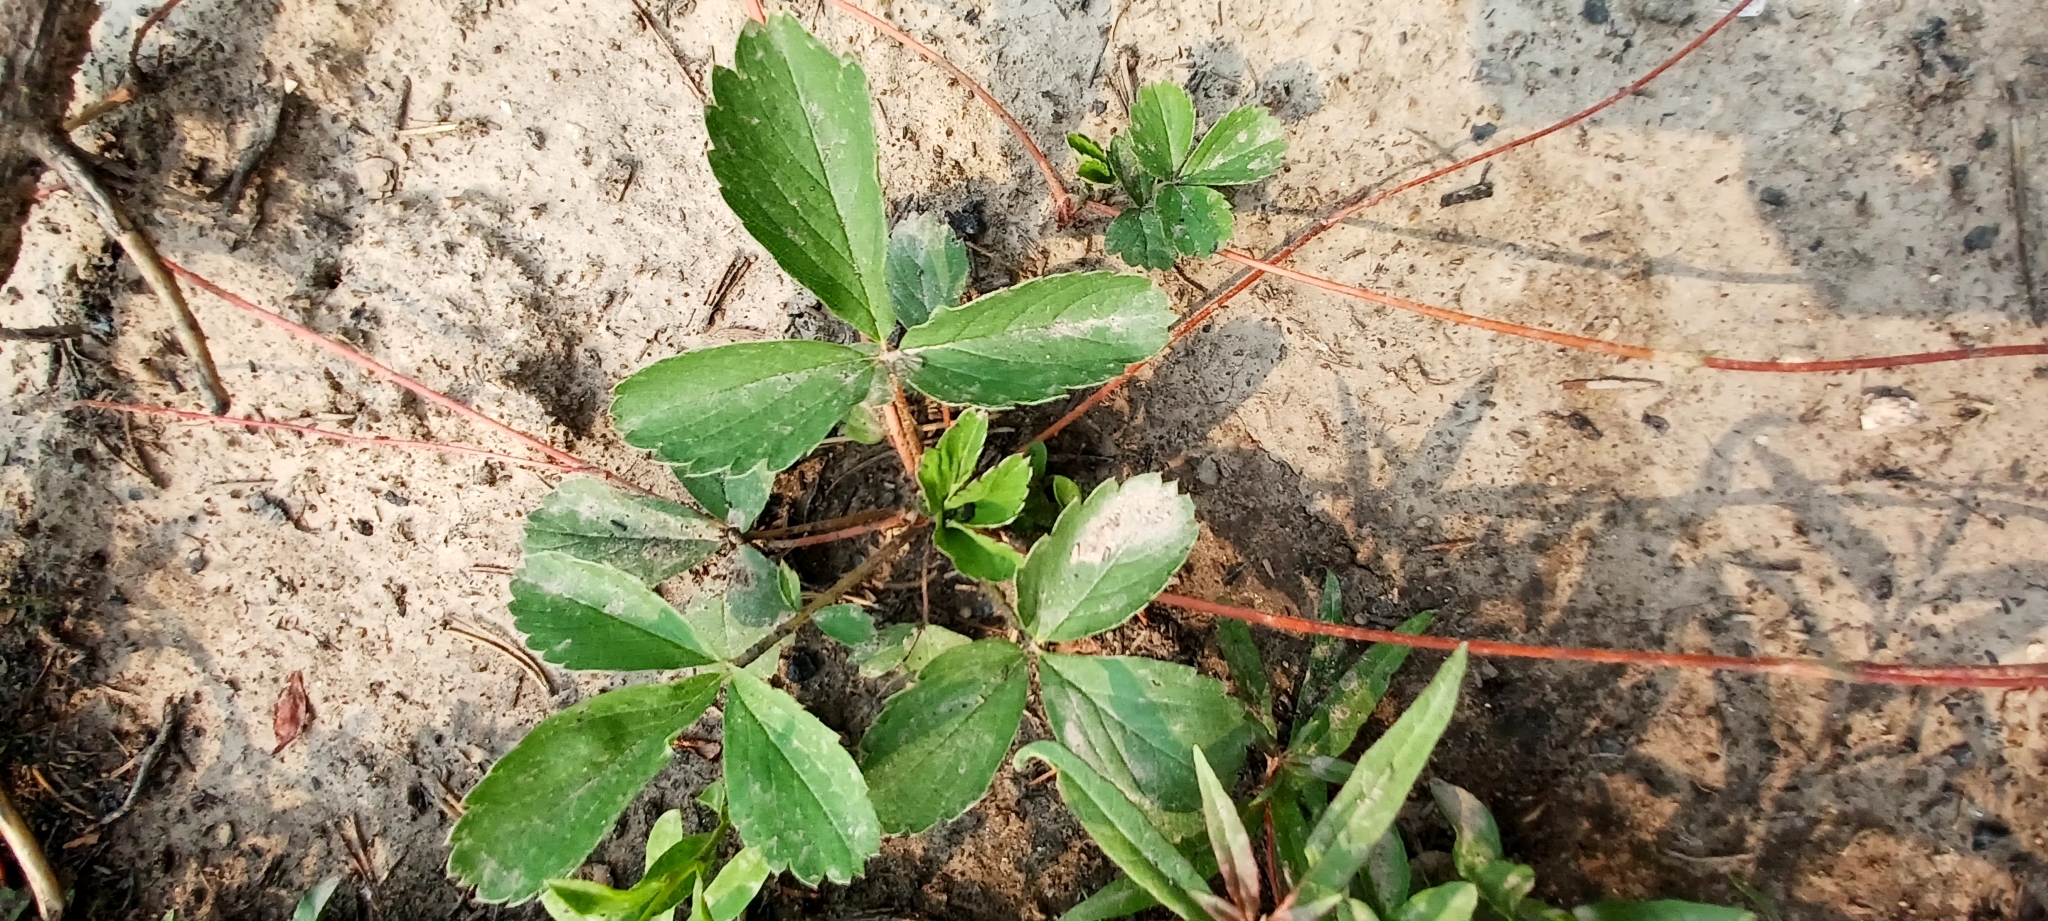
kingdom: Plantae
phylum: Tracheophyta
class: Magnoliopsida
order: Rosales
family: Rosaceae
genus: Fragaria
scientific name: Fragaria virginiana
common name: Thickleaved wild strawberry
